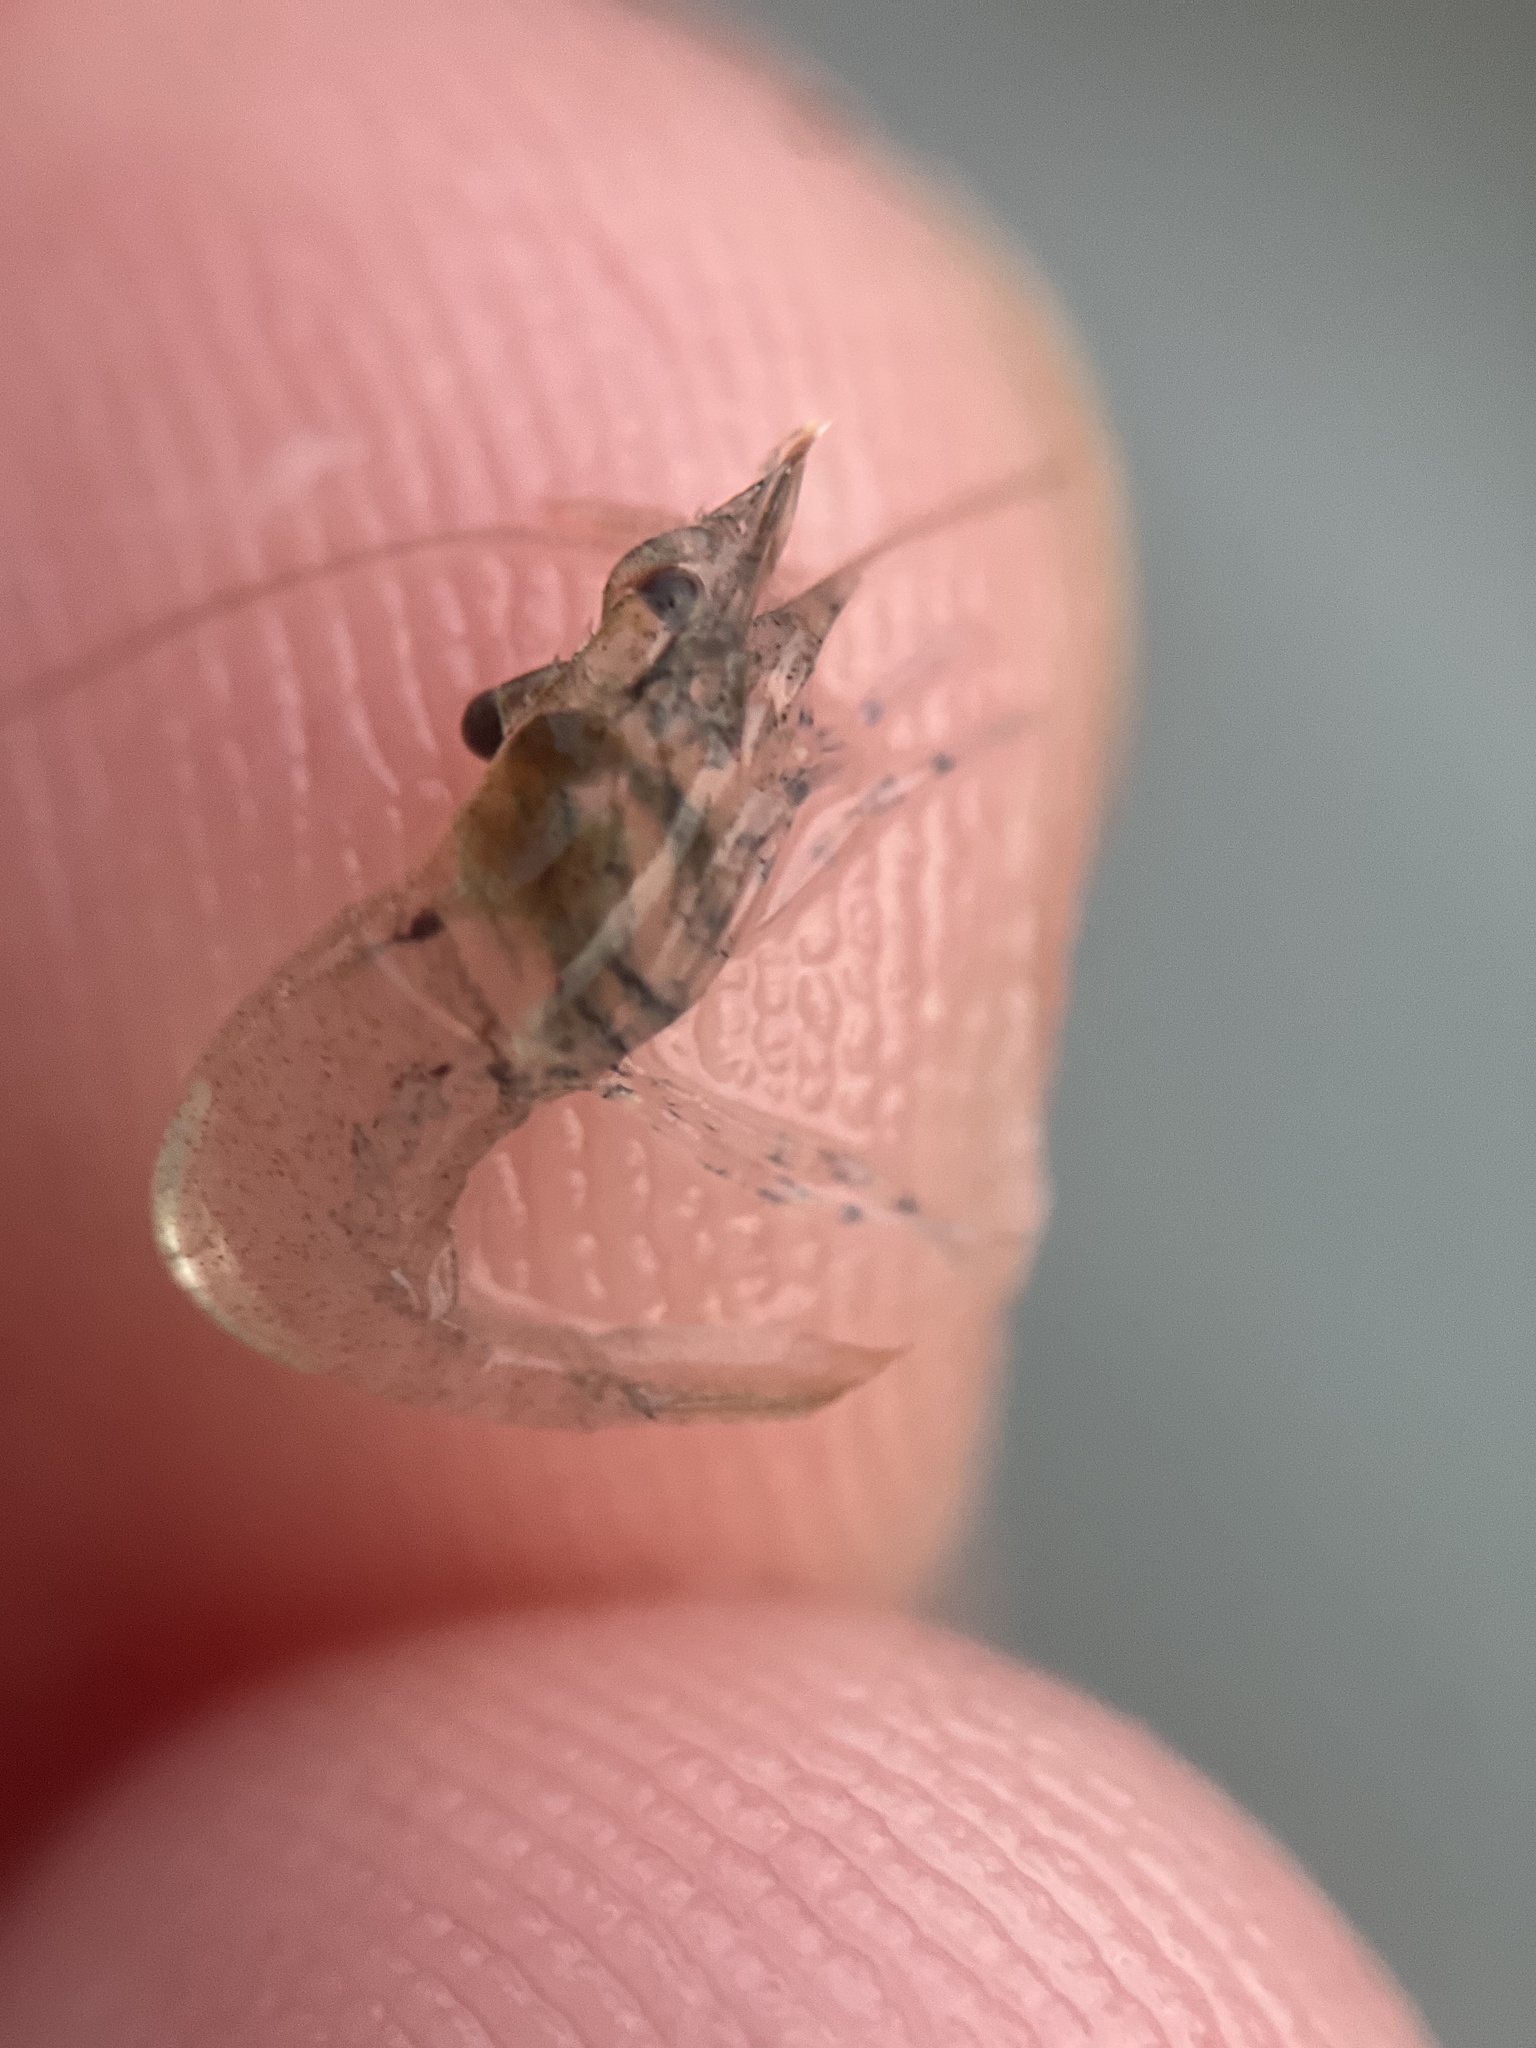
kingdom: Animalia
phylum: Arthropoda
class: Malacostraca
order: Decapoda
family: Thoridae
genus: Heptacarpus
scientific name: Heptacarpus sitchensis
